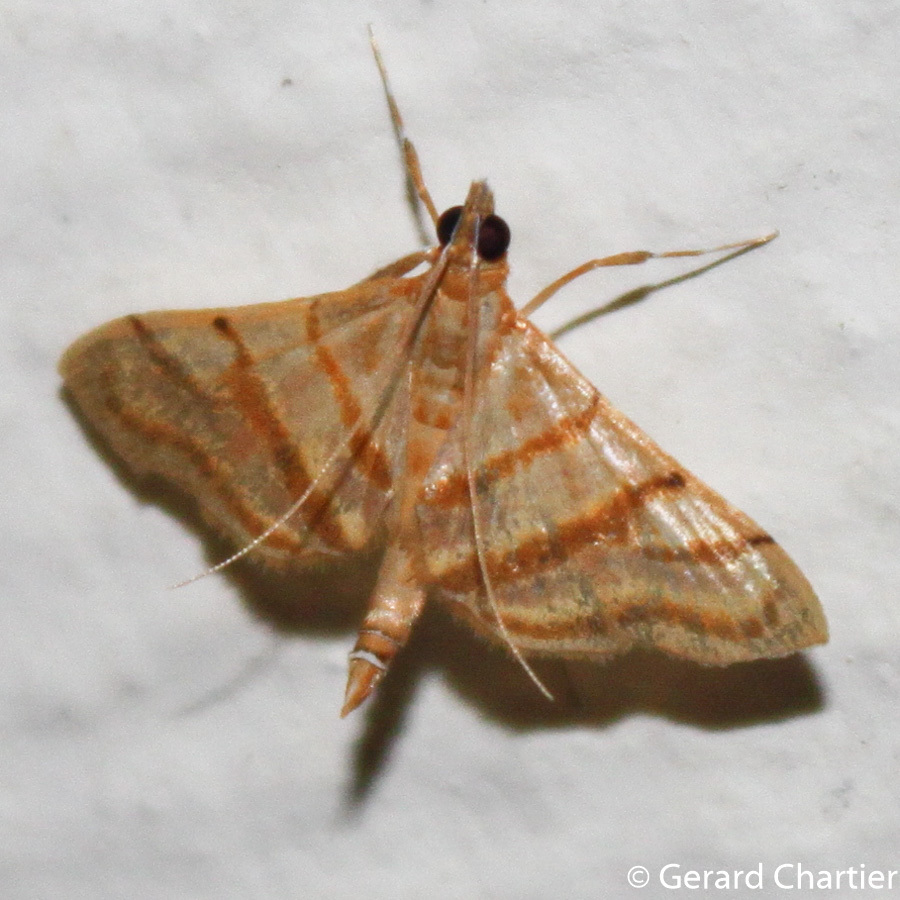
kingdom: Animalia
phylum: Arthropoda
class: Insecta
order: Lepidoptera
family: Crambidae
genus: Pagyda
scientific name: Pagyda salvalis
